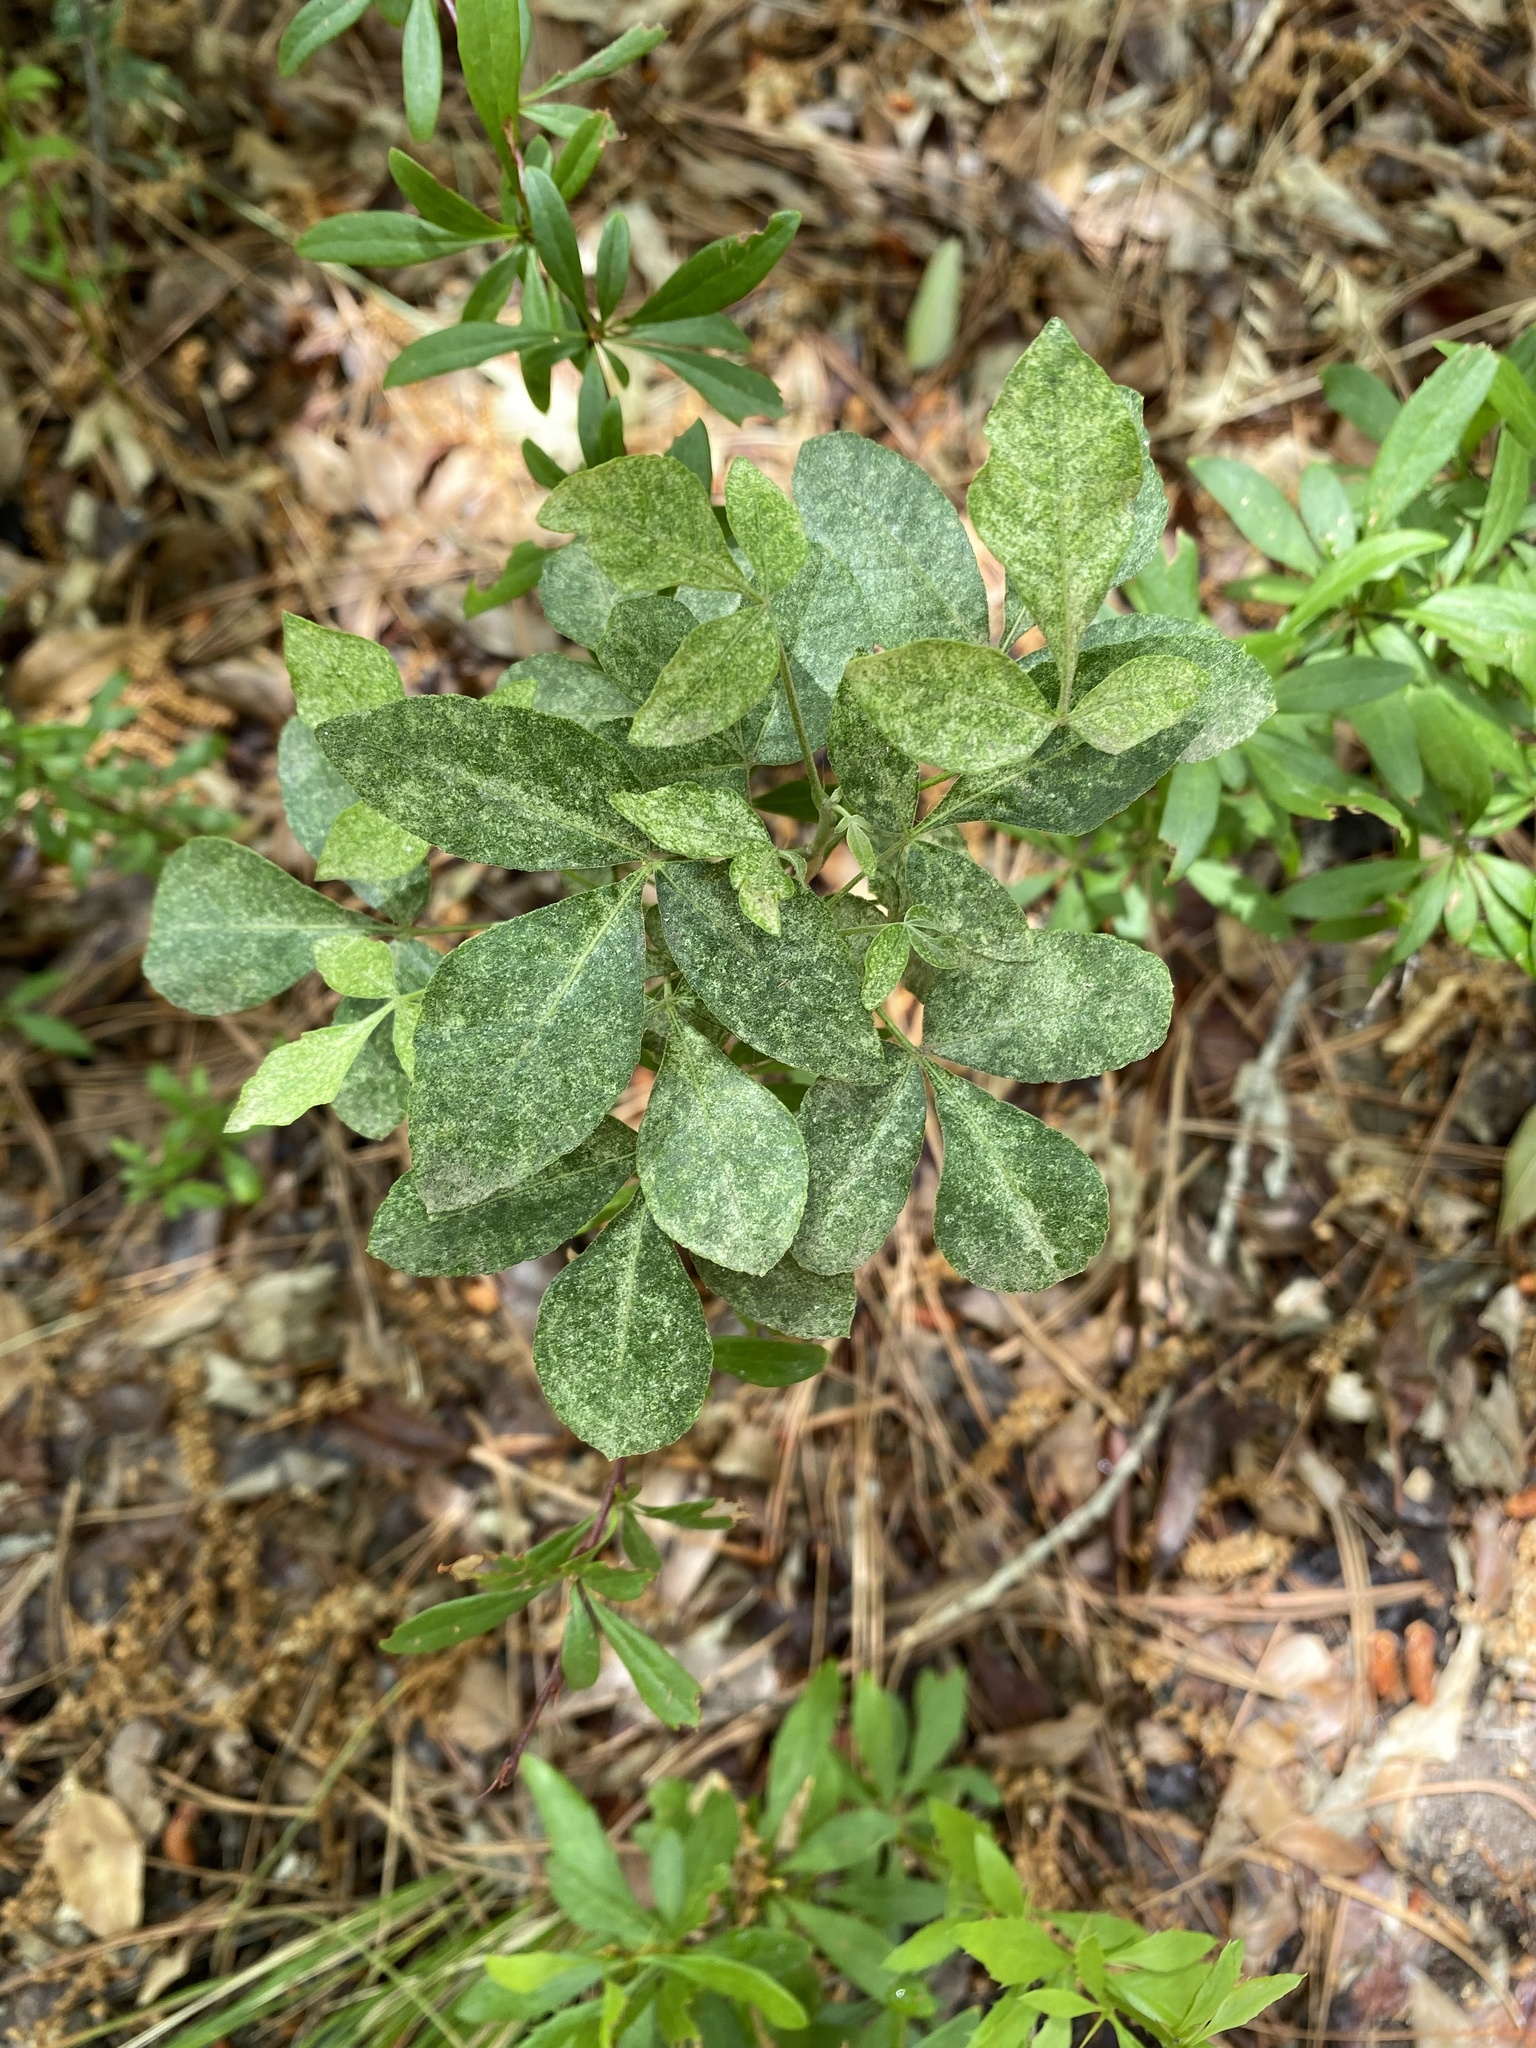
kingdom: Plantae
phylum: Tracheophyta
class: Magnoliopsida
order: Sapindales
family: Rutaceae
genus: Ptelea
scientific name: Ptelea trifoliata
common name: Common hop-tree
